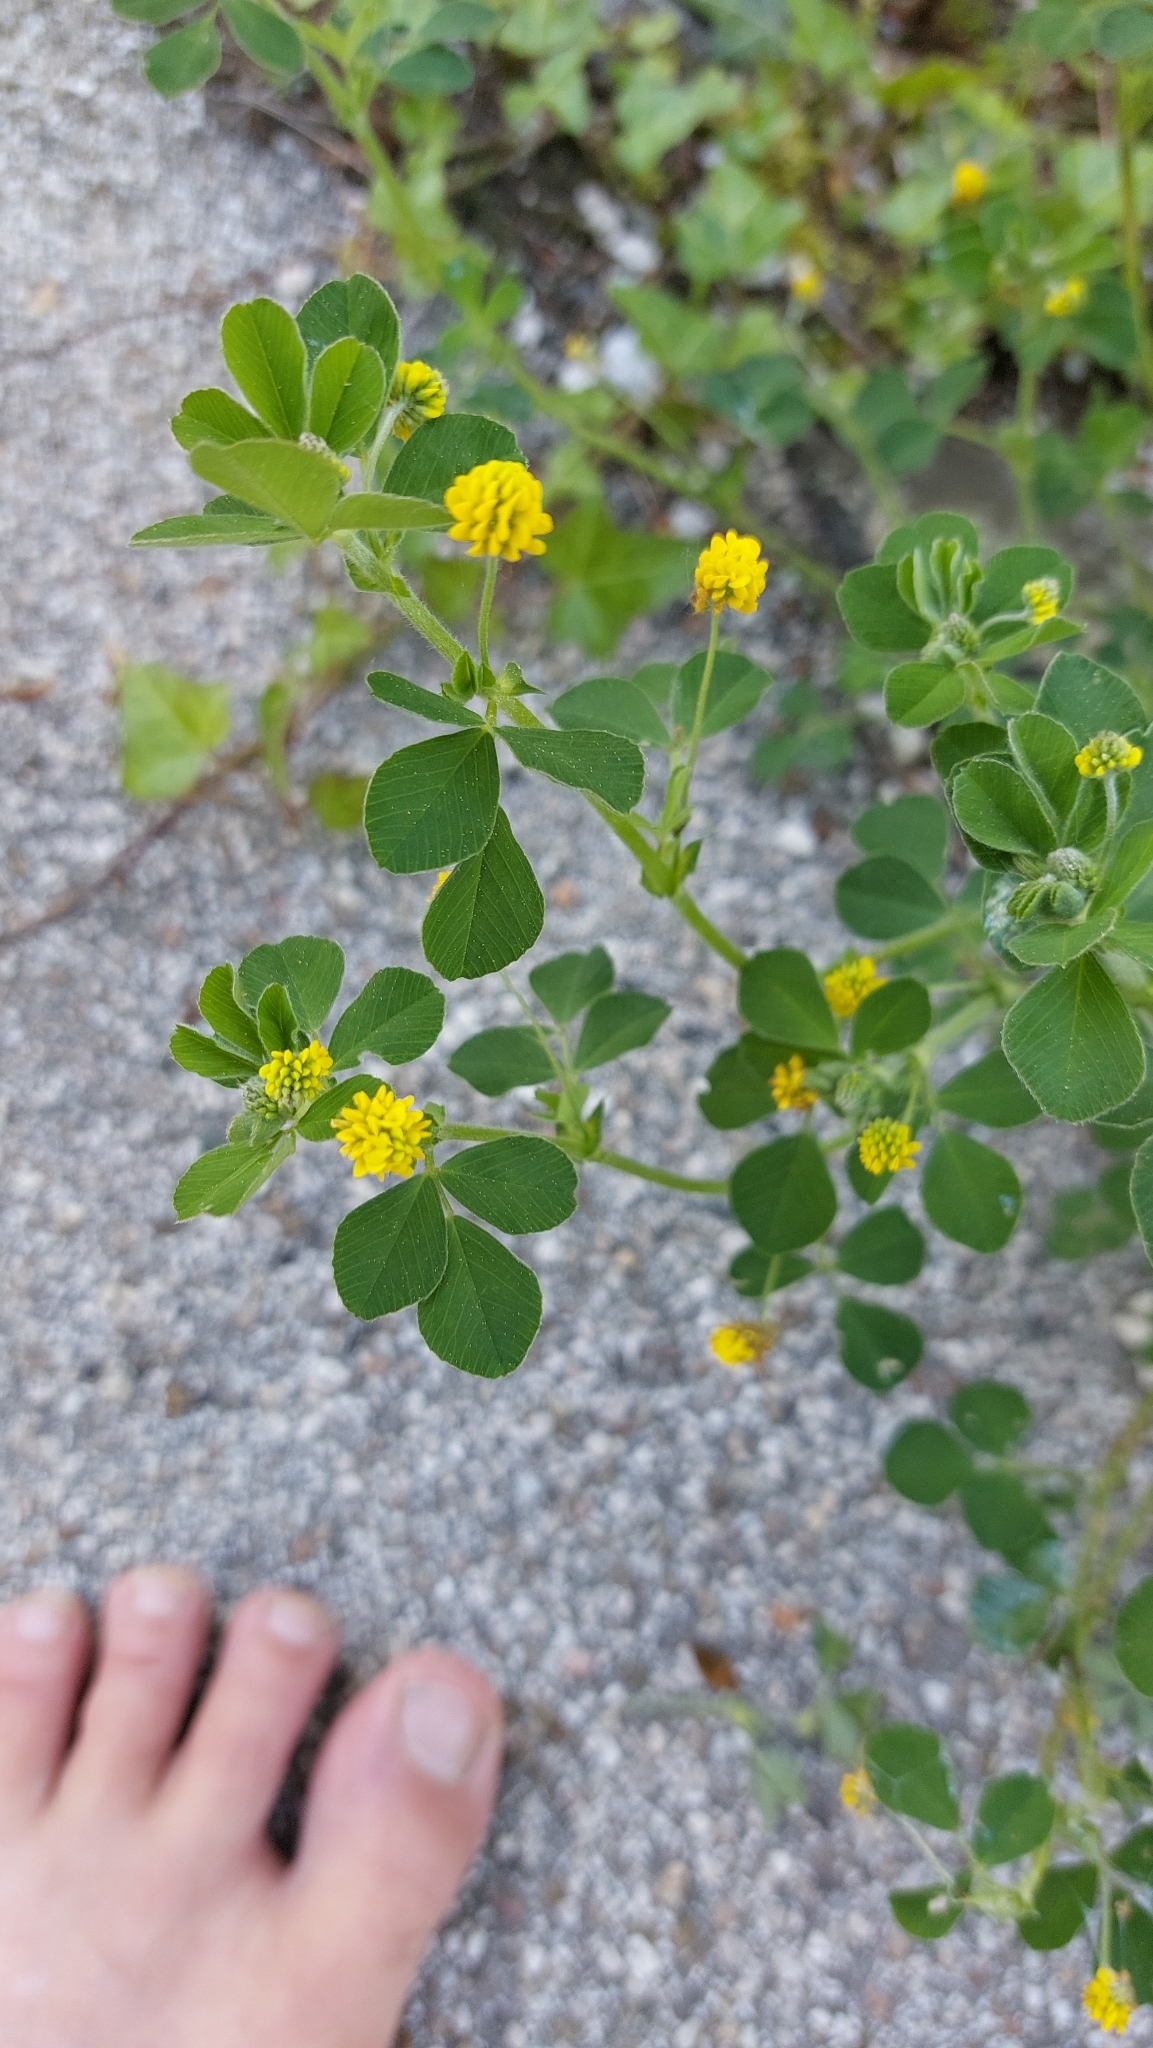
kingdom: Plantae
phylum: Tracheophyta
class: Magnoliopsida
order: Fabales
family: Fabaceae
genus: Medicago
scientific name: Medicago lupulina
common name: Black medick
